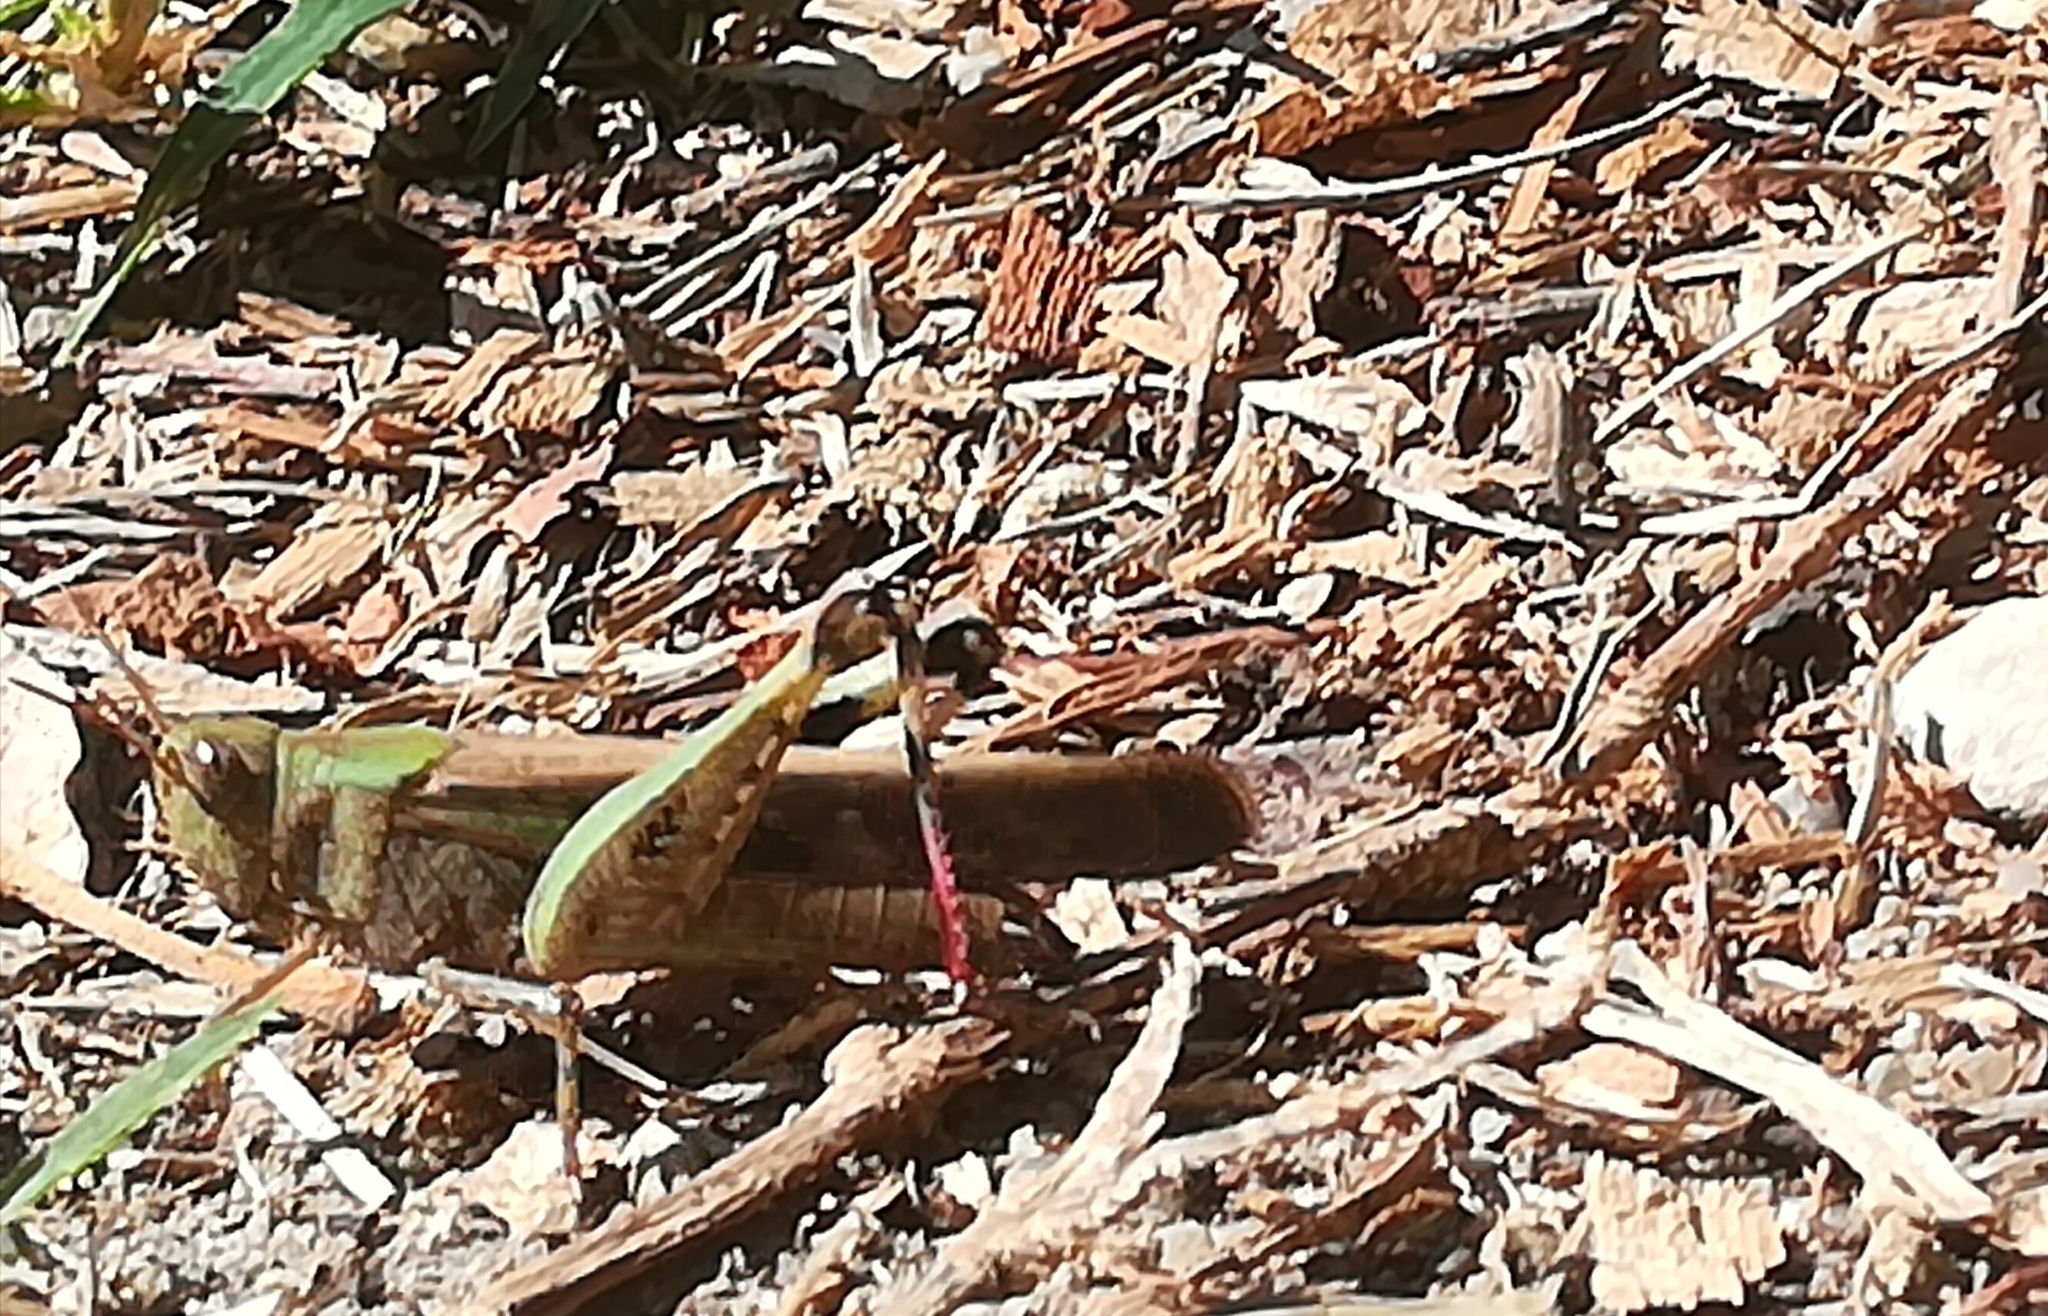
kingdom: Animalia
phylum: Arthropoda
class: Insecta
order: Orthoptera
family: Acrididae
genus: Aiolopus
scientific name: Aiolopus strepens
